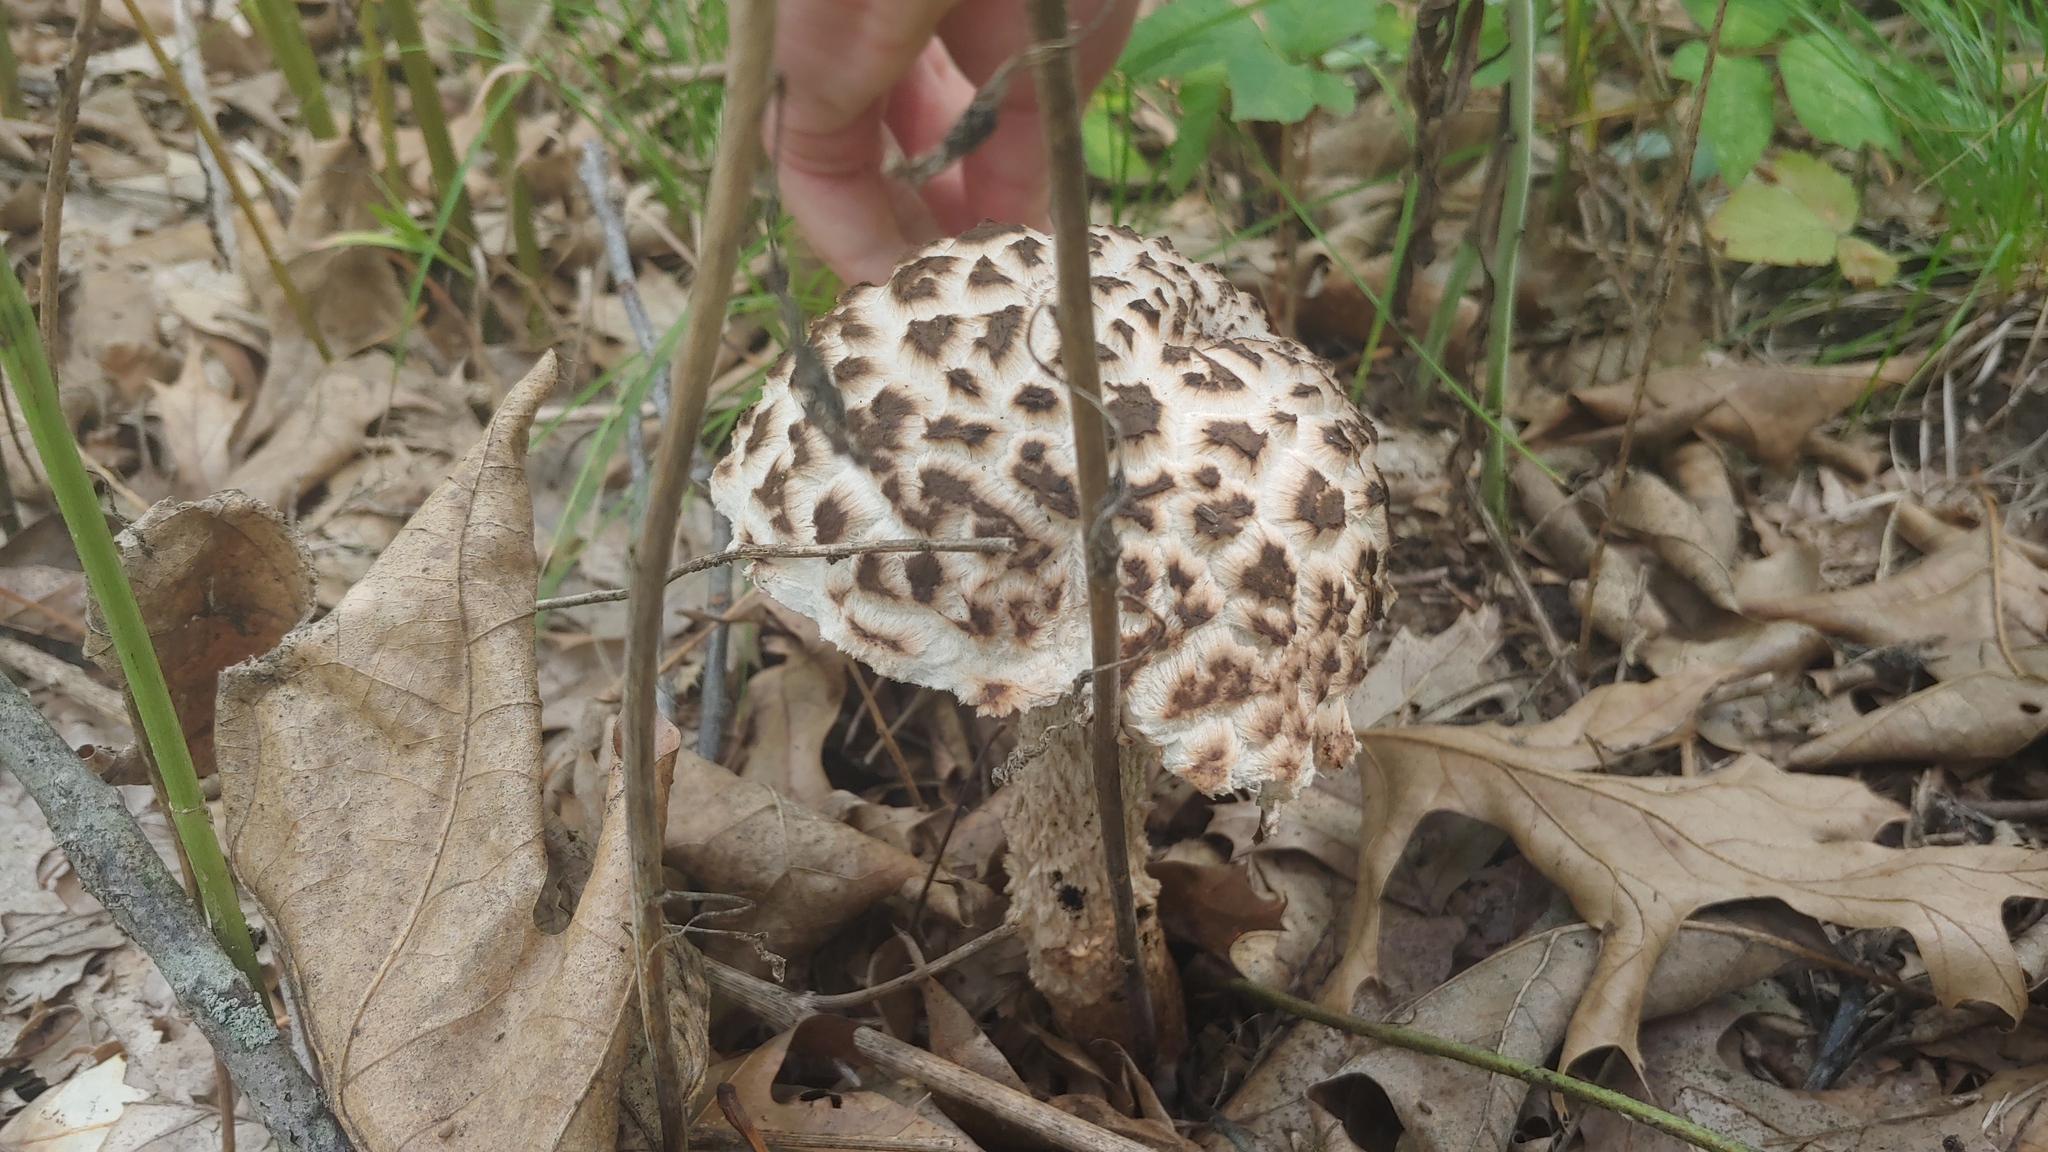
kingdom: Fungi
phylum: Basidiomycota
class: Agaricomycetes
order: Boletales
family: Boletaceae
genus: Strobilomyces
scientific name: Strobilomyces strobilaceus
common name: Old man of the woods
